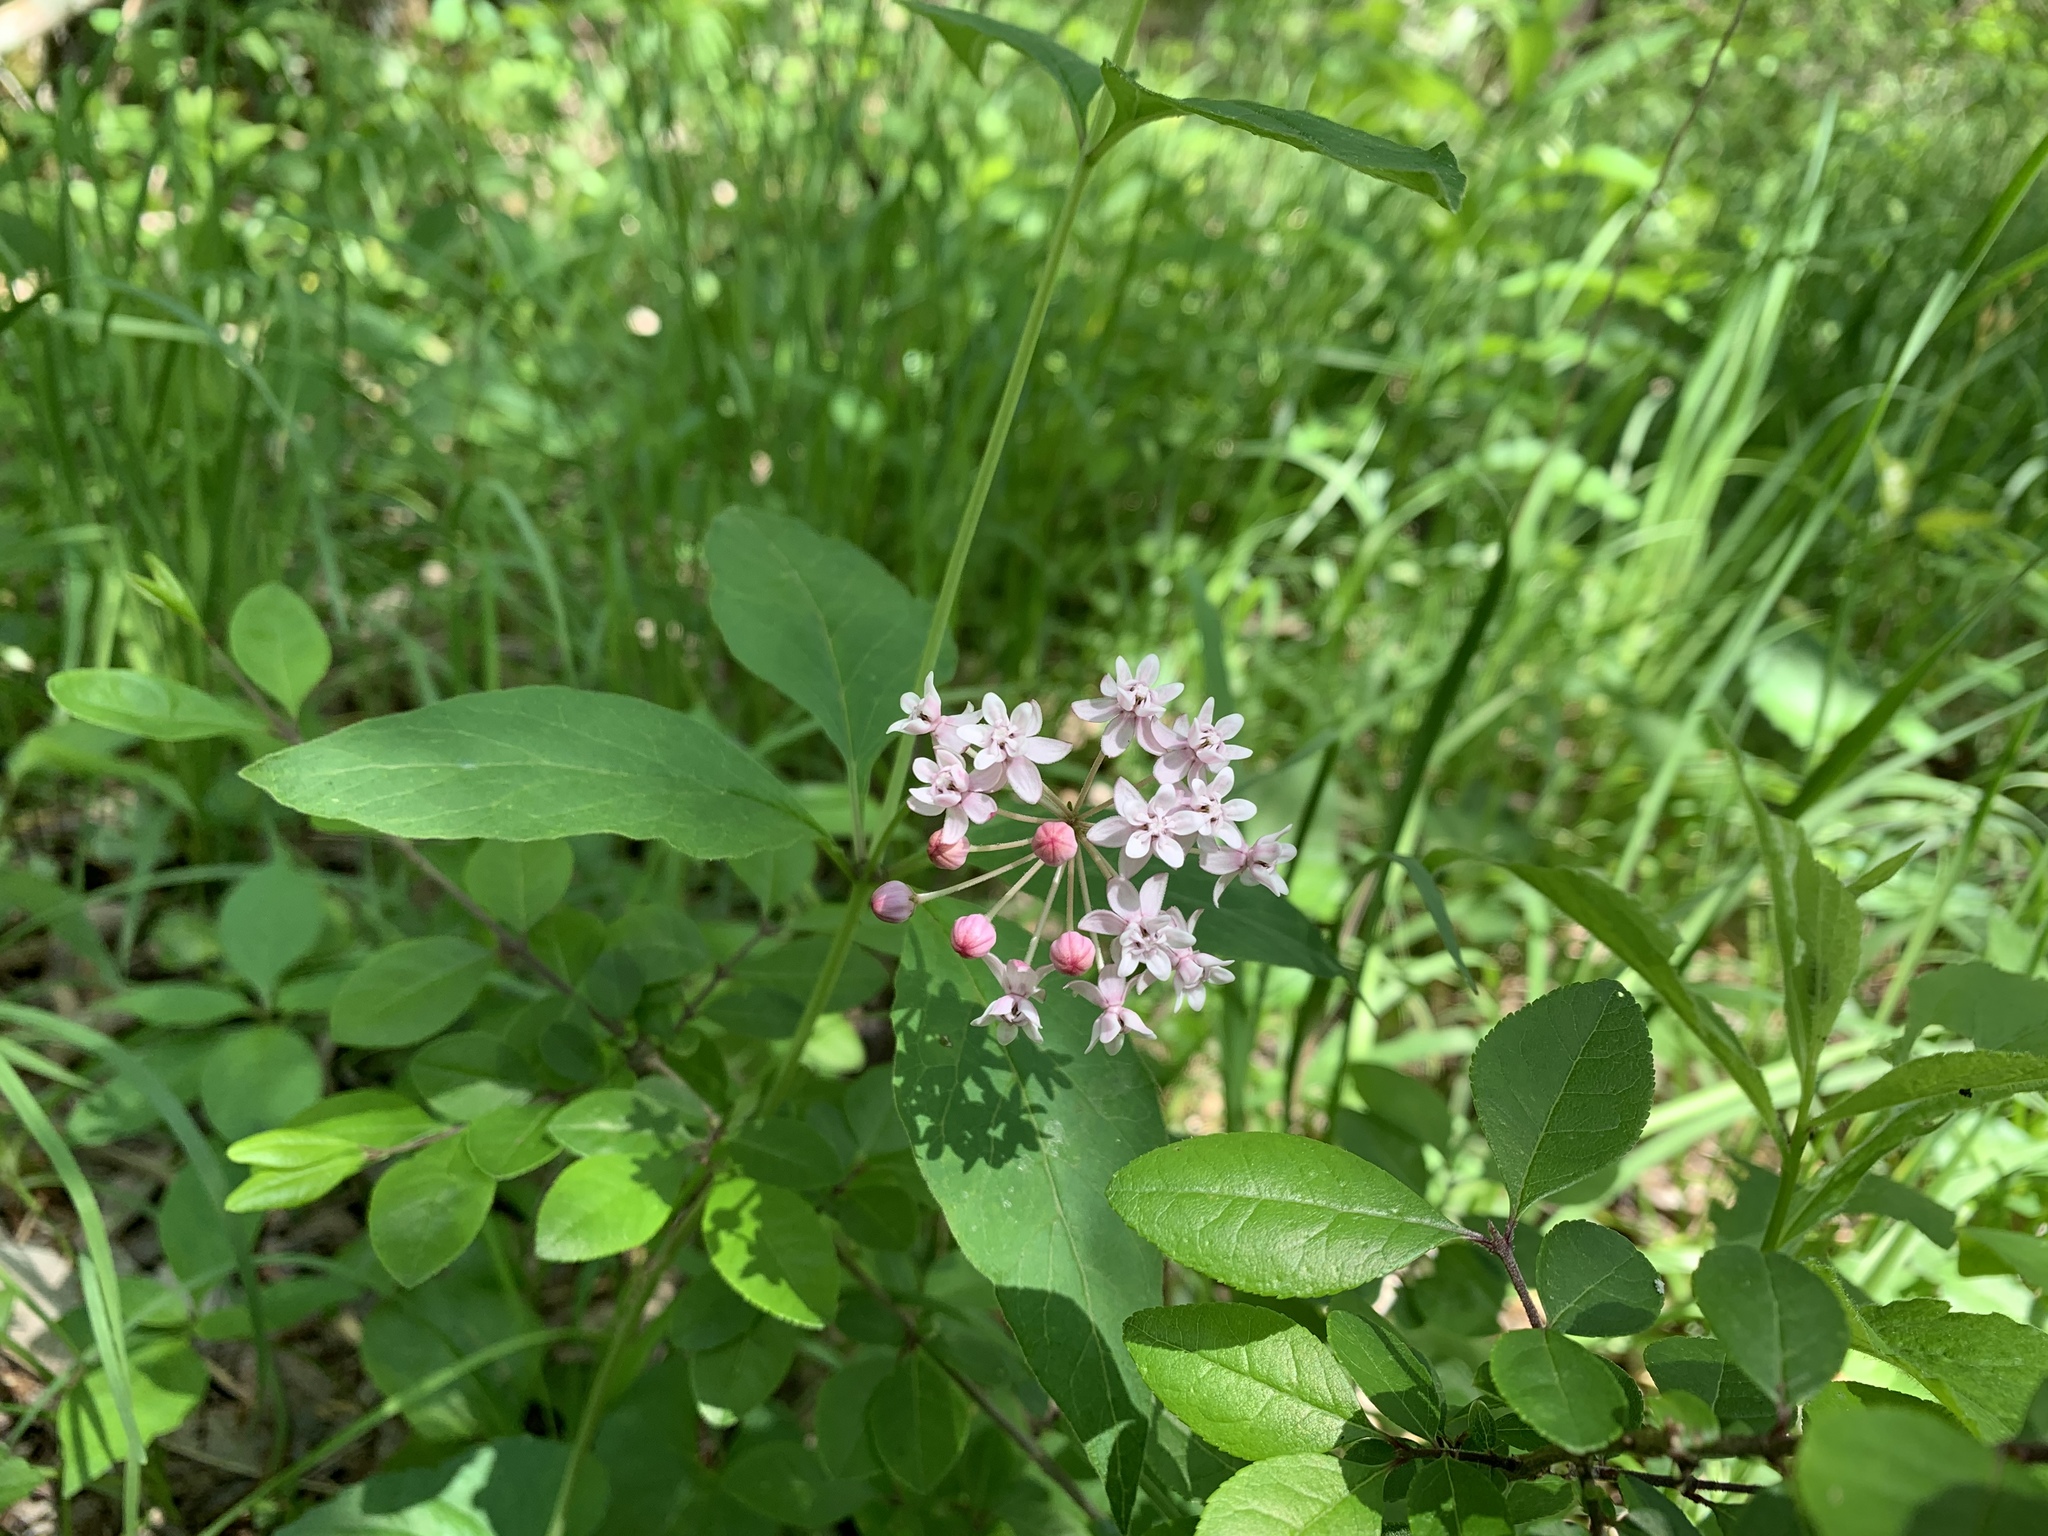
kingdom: Plantae
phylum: Tracheophyta
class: Magnoliopsida
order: Gentianales
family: Apocynaceae
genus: Asclepias
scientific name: Asclepias quadrifolia
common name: Whorled milkweed
